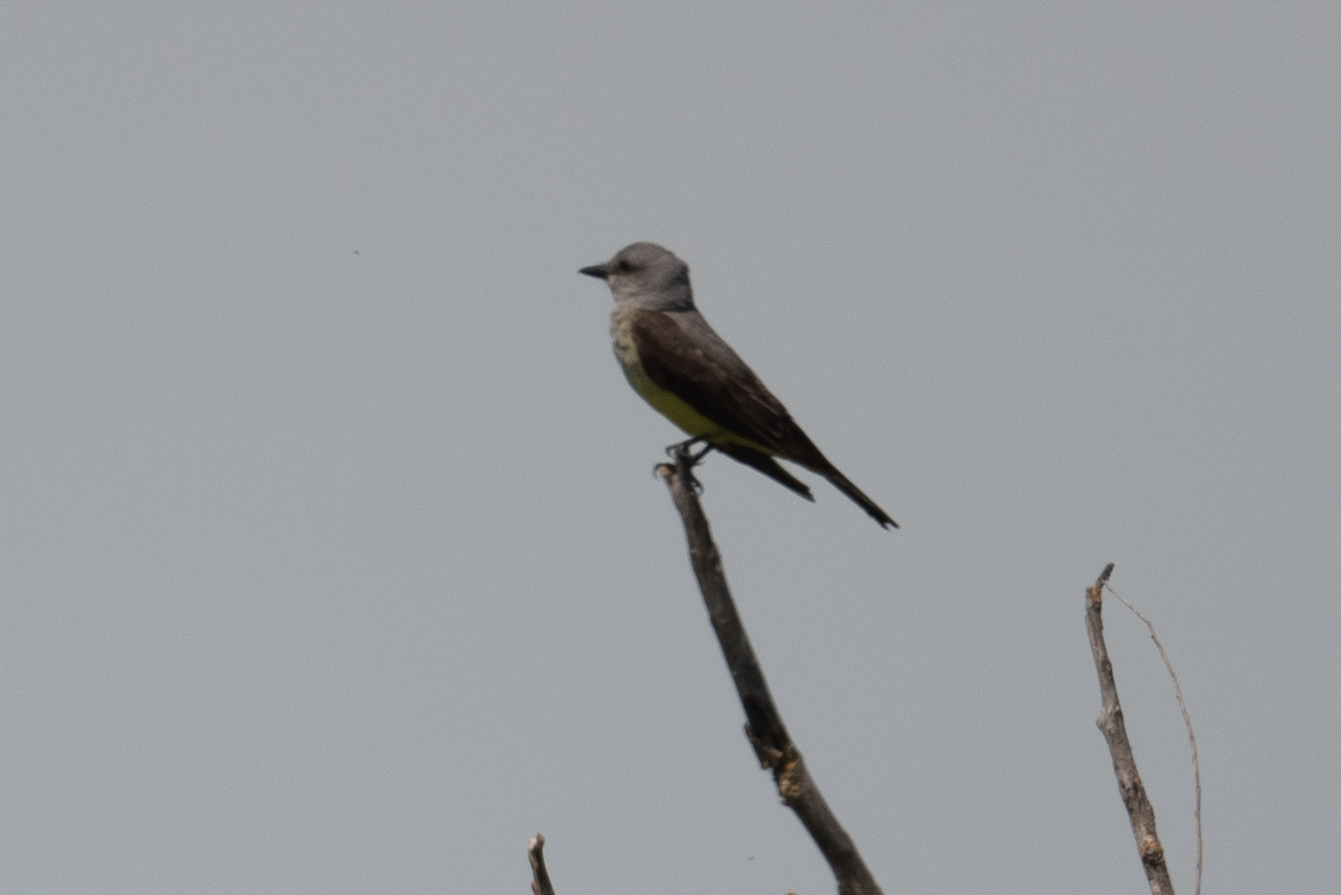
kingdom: Animalia
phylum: Chordata
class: Aves
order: Passeriformes
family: Tyrannidae
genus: Tyrannus
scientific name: Tyrannus verticalis
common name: Western kingbird
